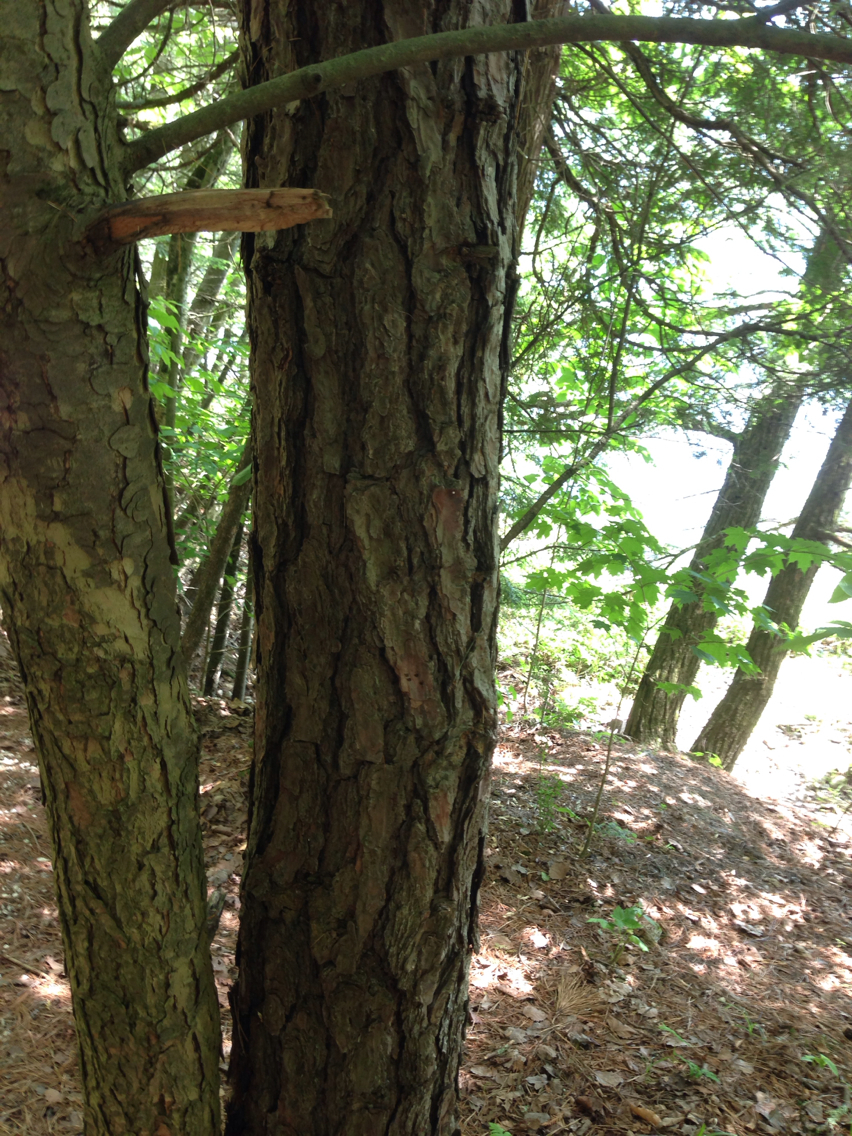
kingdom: Plantae
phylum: Tracheophyta
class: Pinopsida
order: Pinales
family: Pinaceae
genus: Pinus
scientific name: Pinus rigida
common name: Pitch pine
